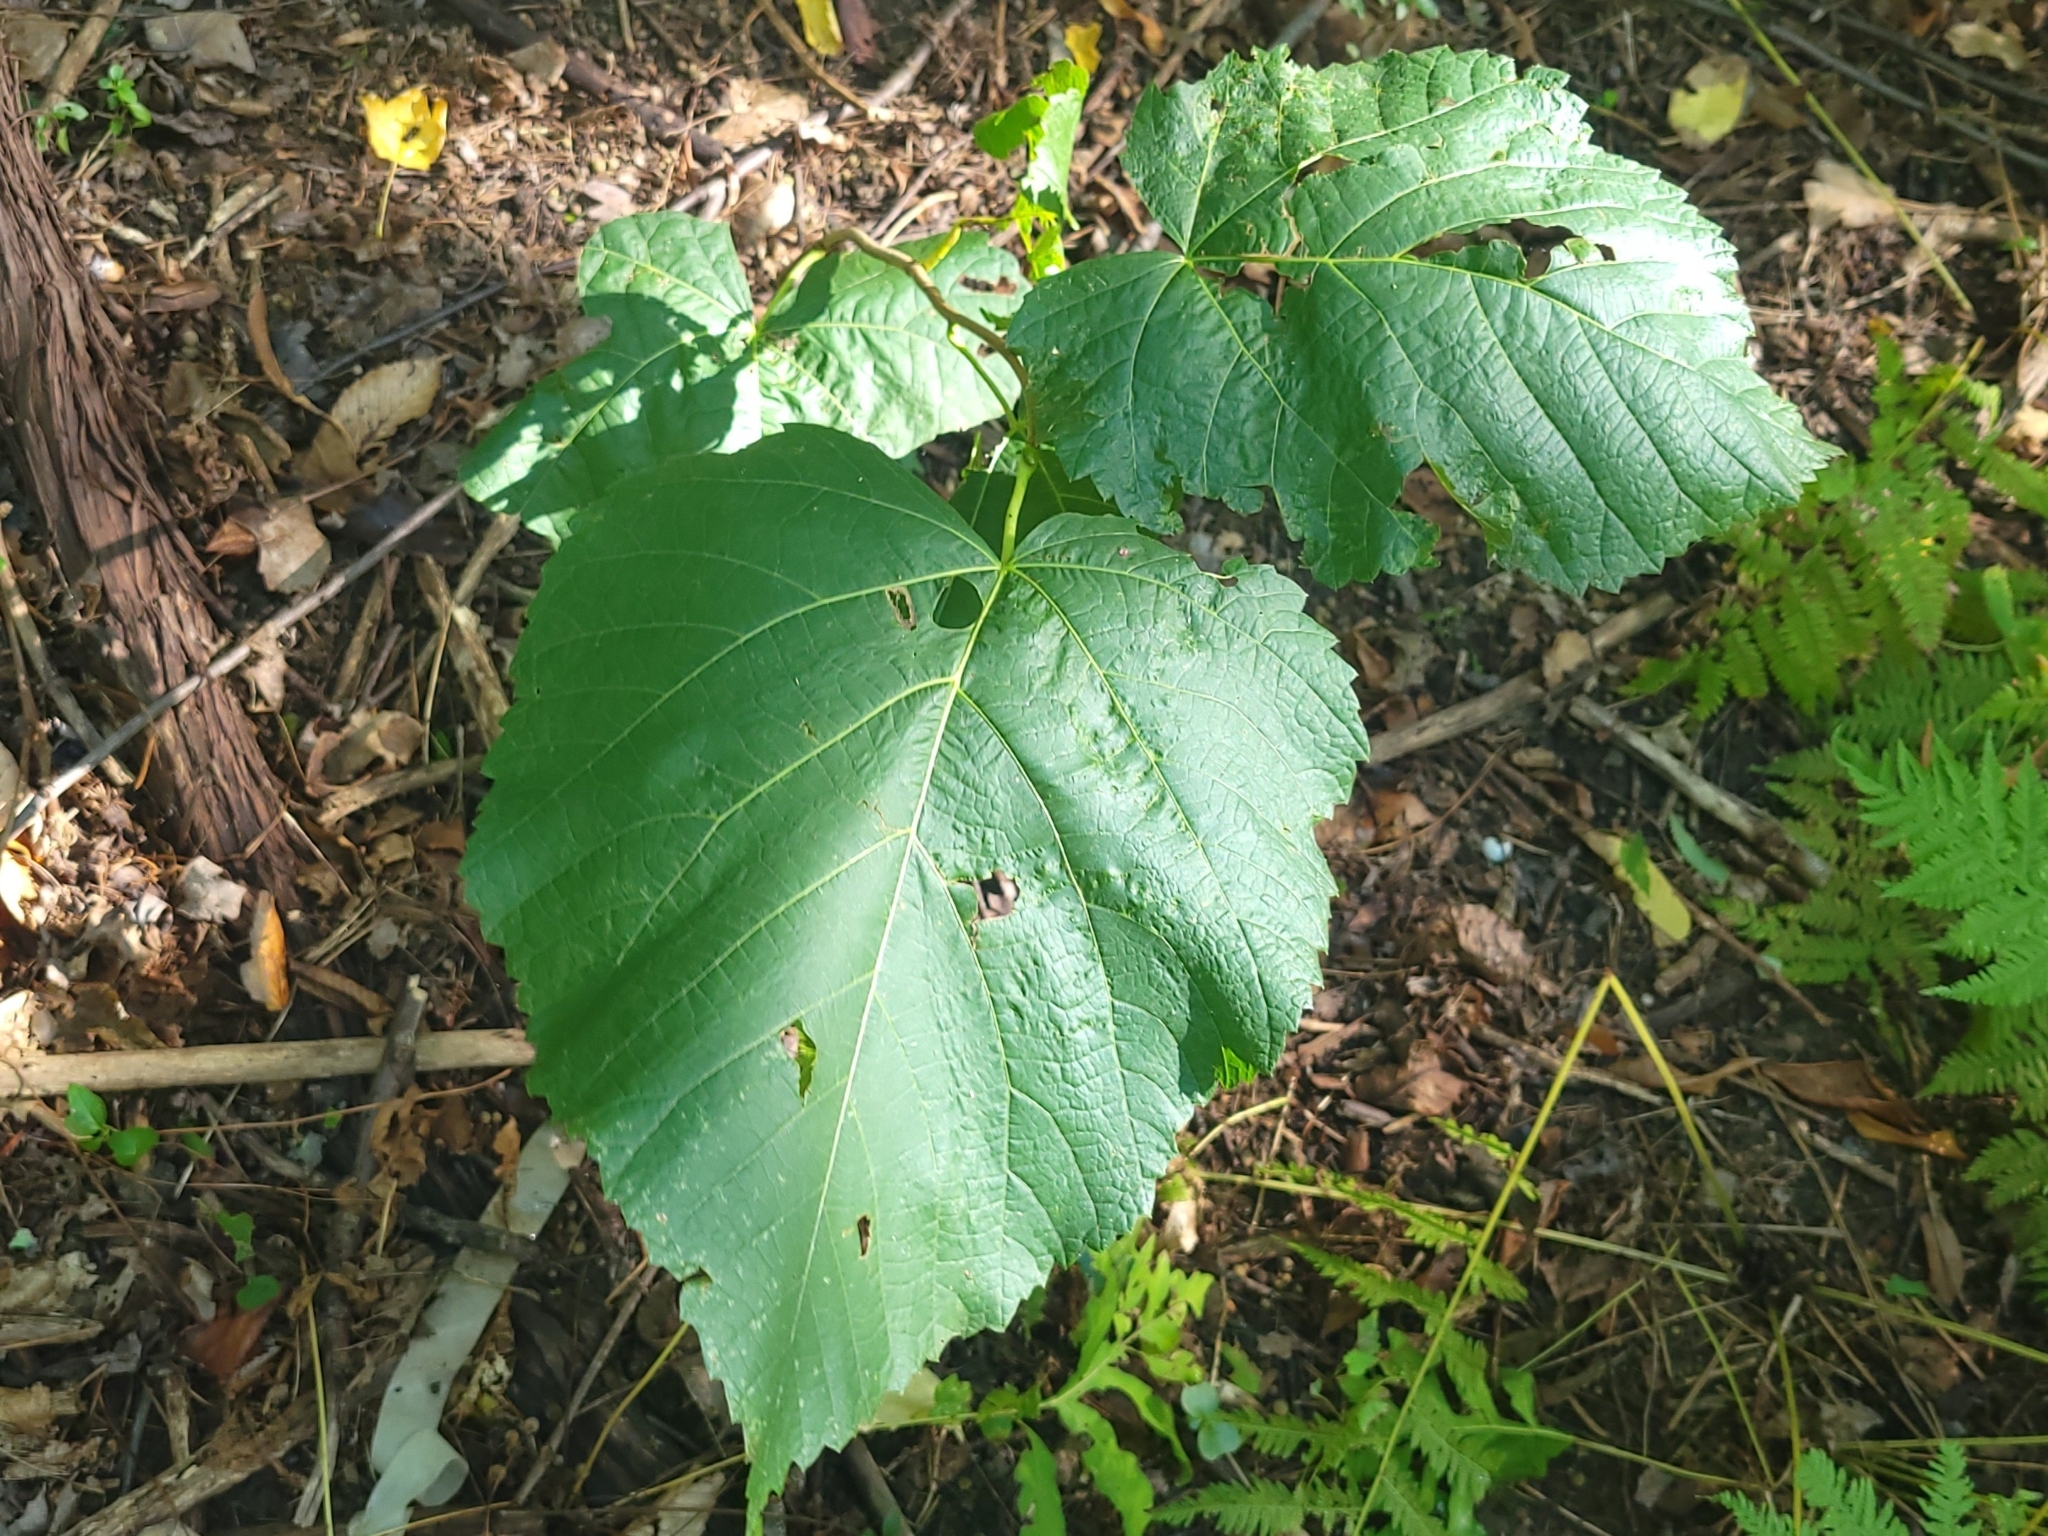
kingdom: Plantae
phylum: Tracheophyta
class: Magnoliopsida
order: Malvales
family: Malvaceae
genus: Tilia
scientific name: Tilia americana
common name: Basswood
